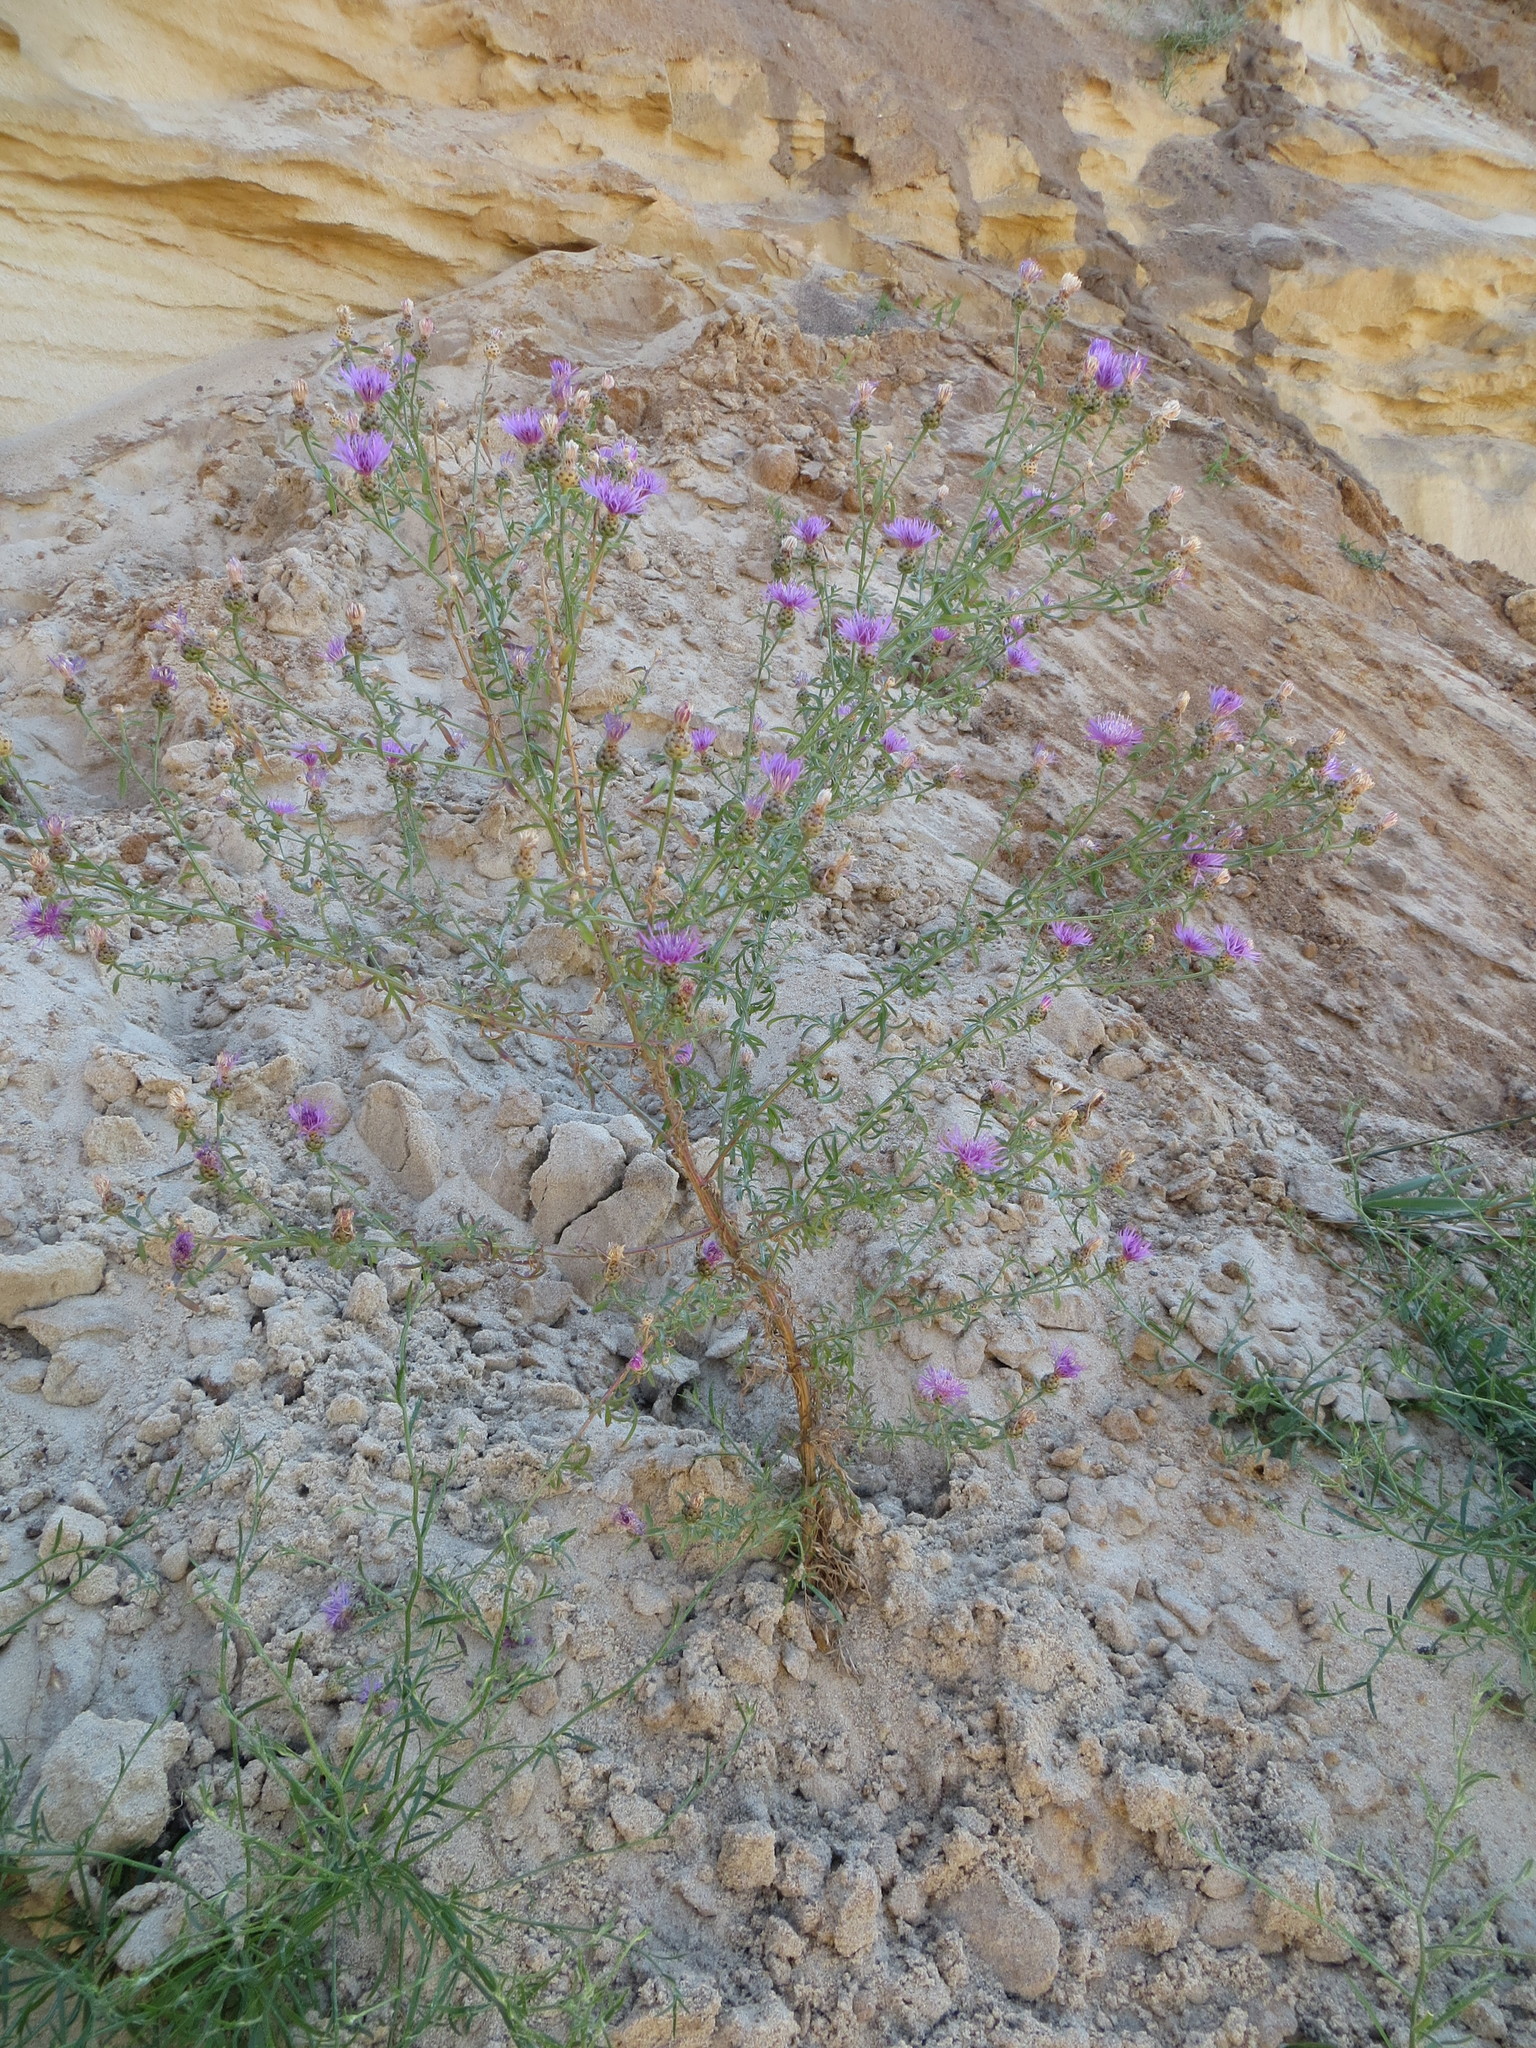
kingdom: Plantae
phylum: Tracheophyta
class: Magnoliopsida
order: Asterales
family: Asteraceae
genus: Centaurea
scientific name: Centaurea stoebe
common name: Spotted knapweed
